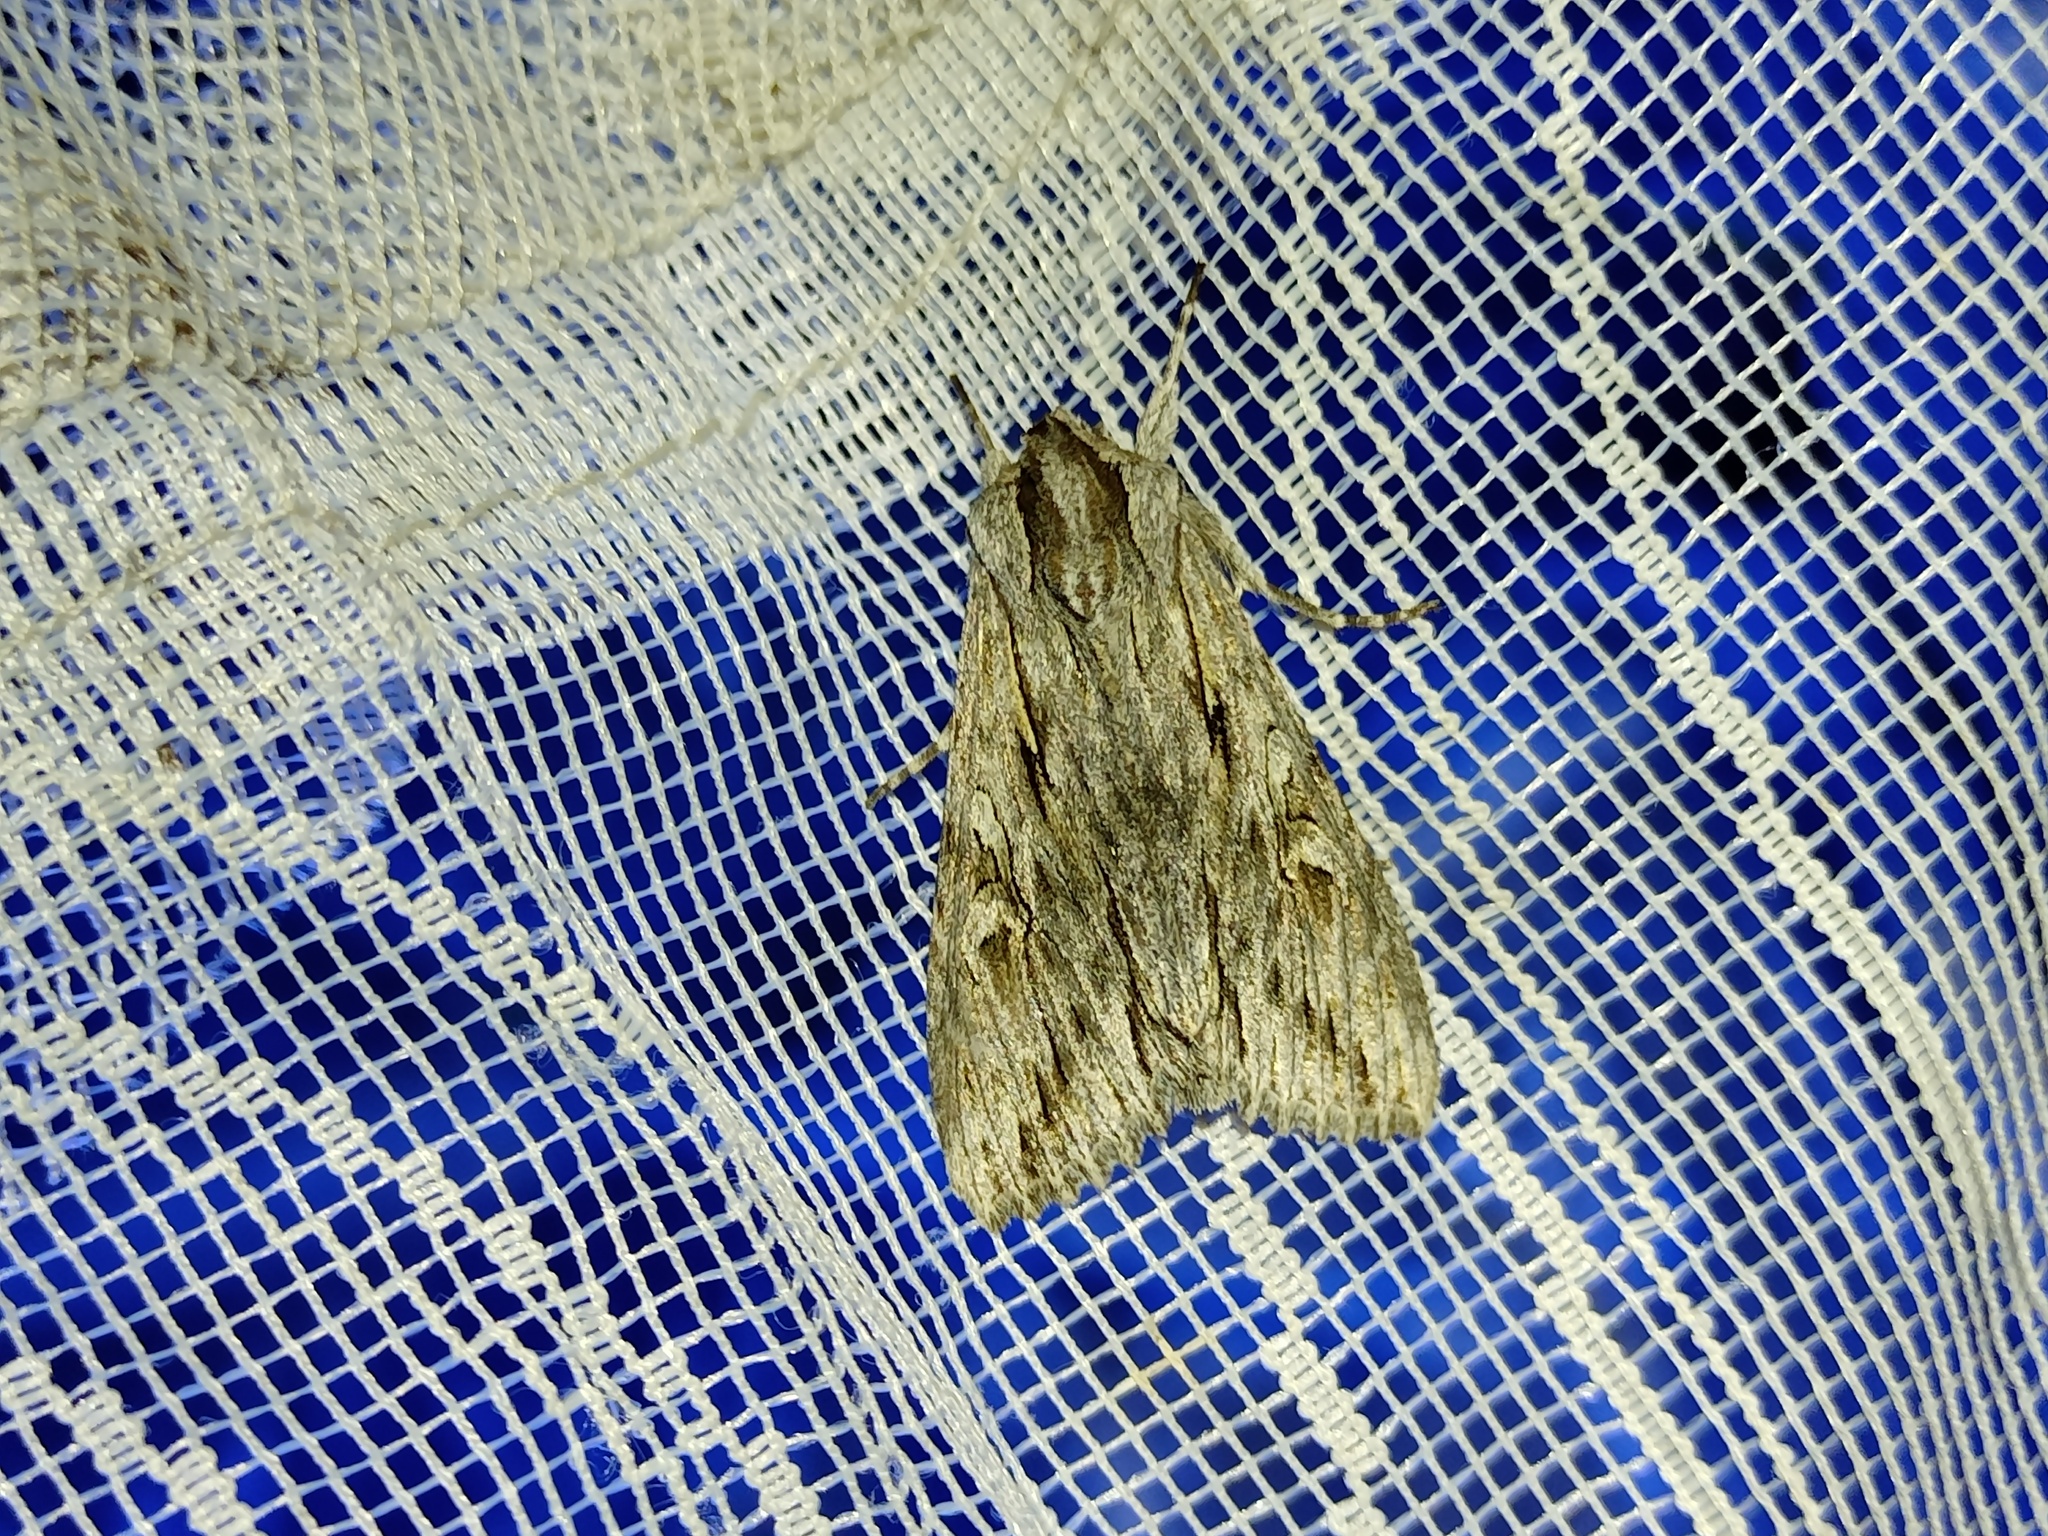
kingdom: Animalia
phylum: Arthropoda
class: Insecta
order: Lepidoptera
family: Noctuidae
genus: Auchmis
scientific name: Auchmis detersa
